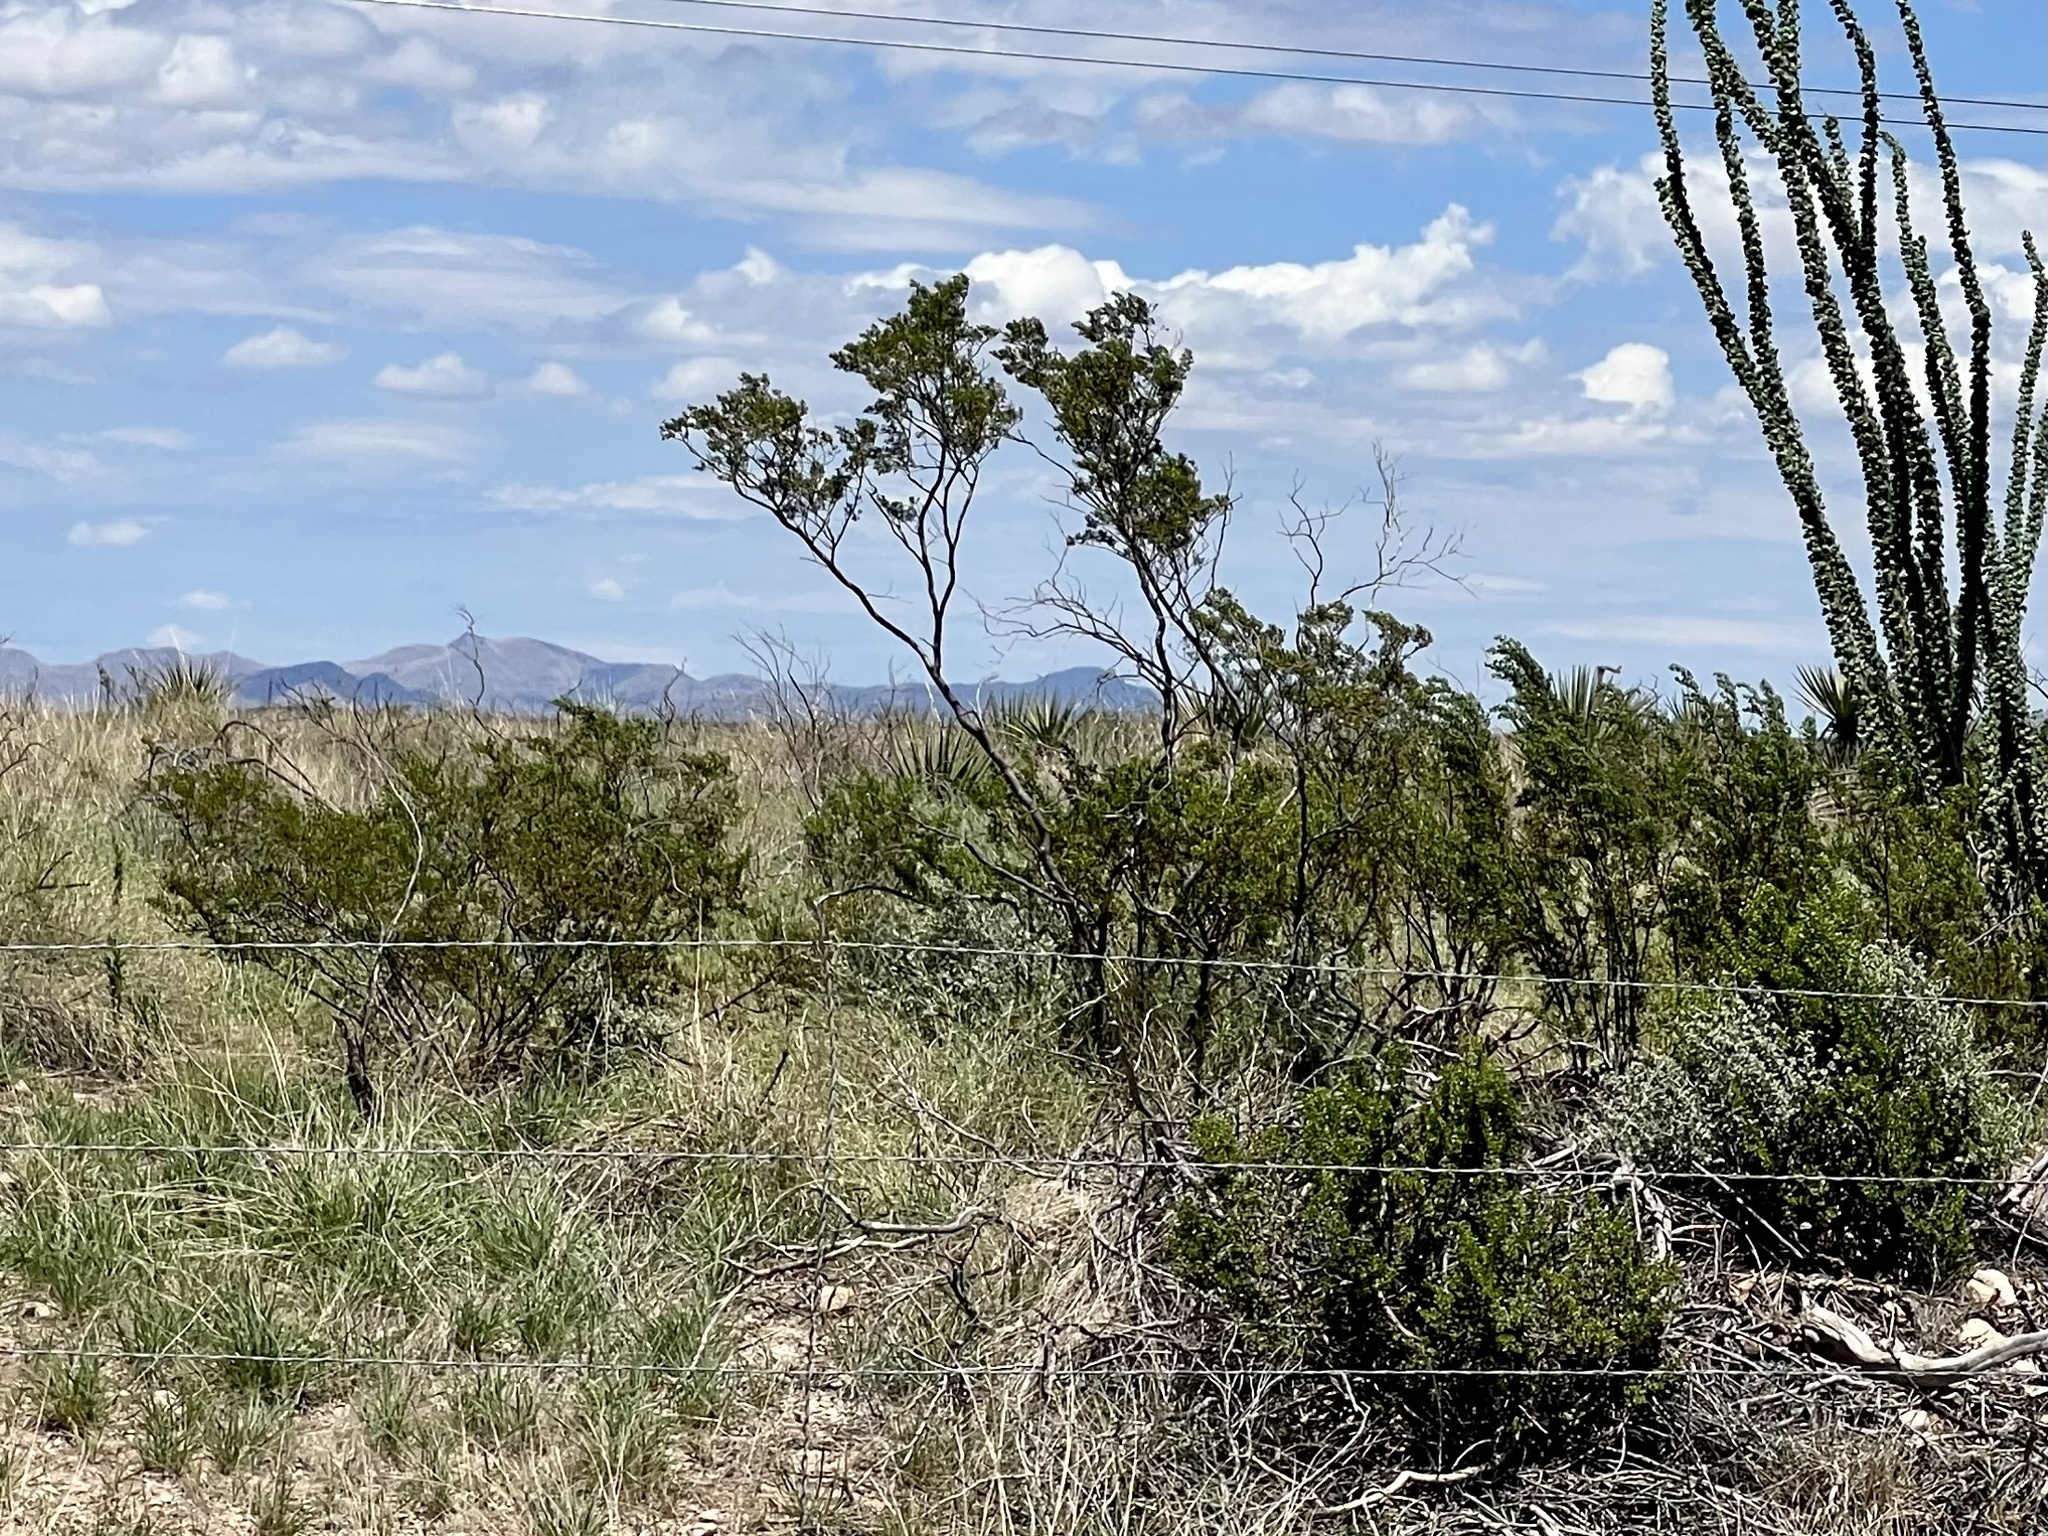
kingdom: Plantae
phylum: Tracheophyta
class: Magnoliopsida
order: Zygophyllales
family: Zygophyllaceae
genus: Larrea
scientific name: Larrea tridentata
